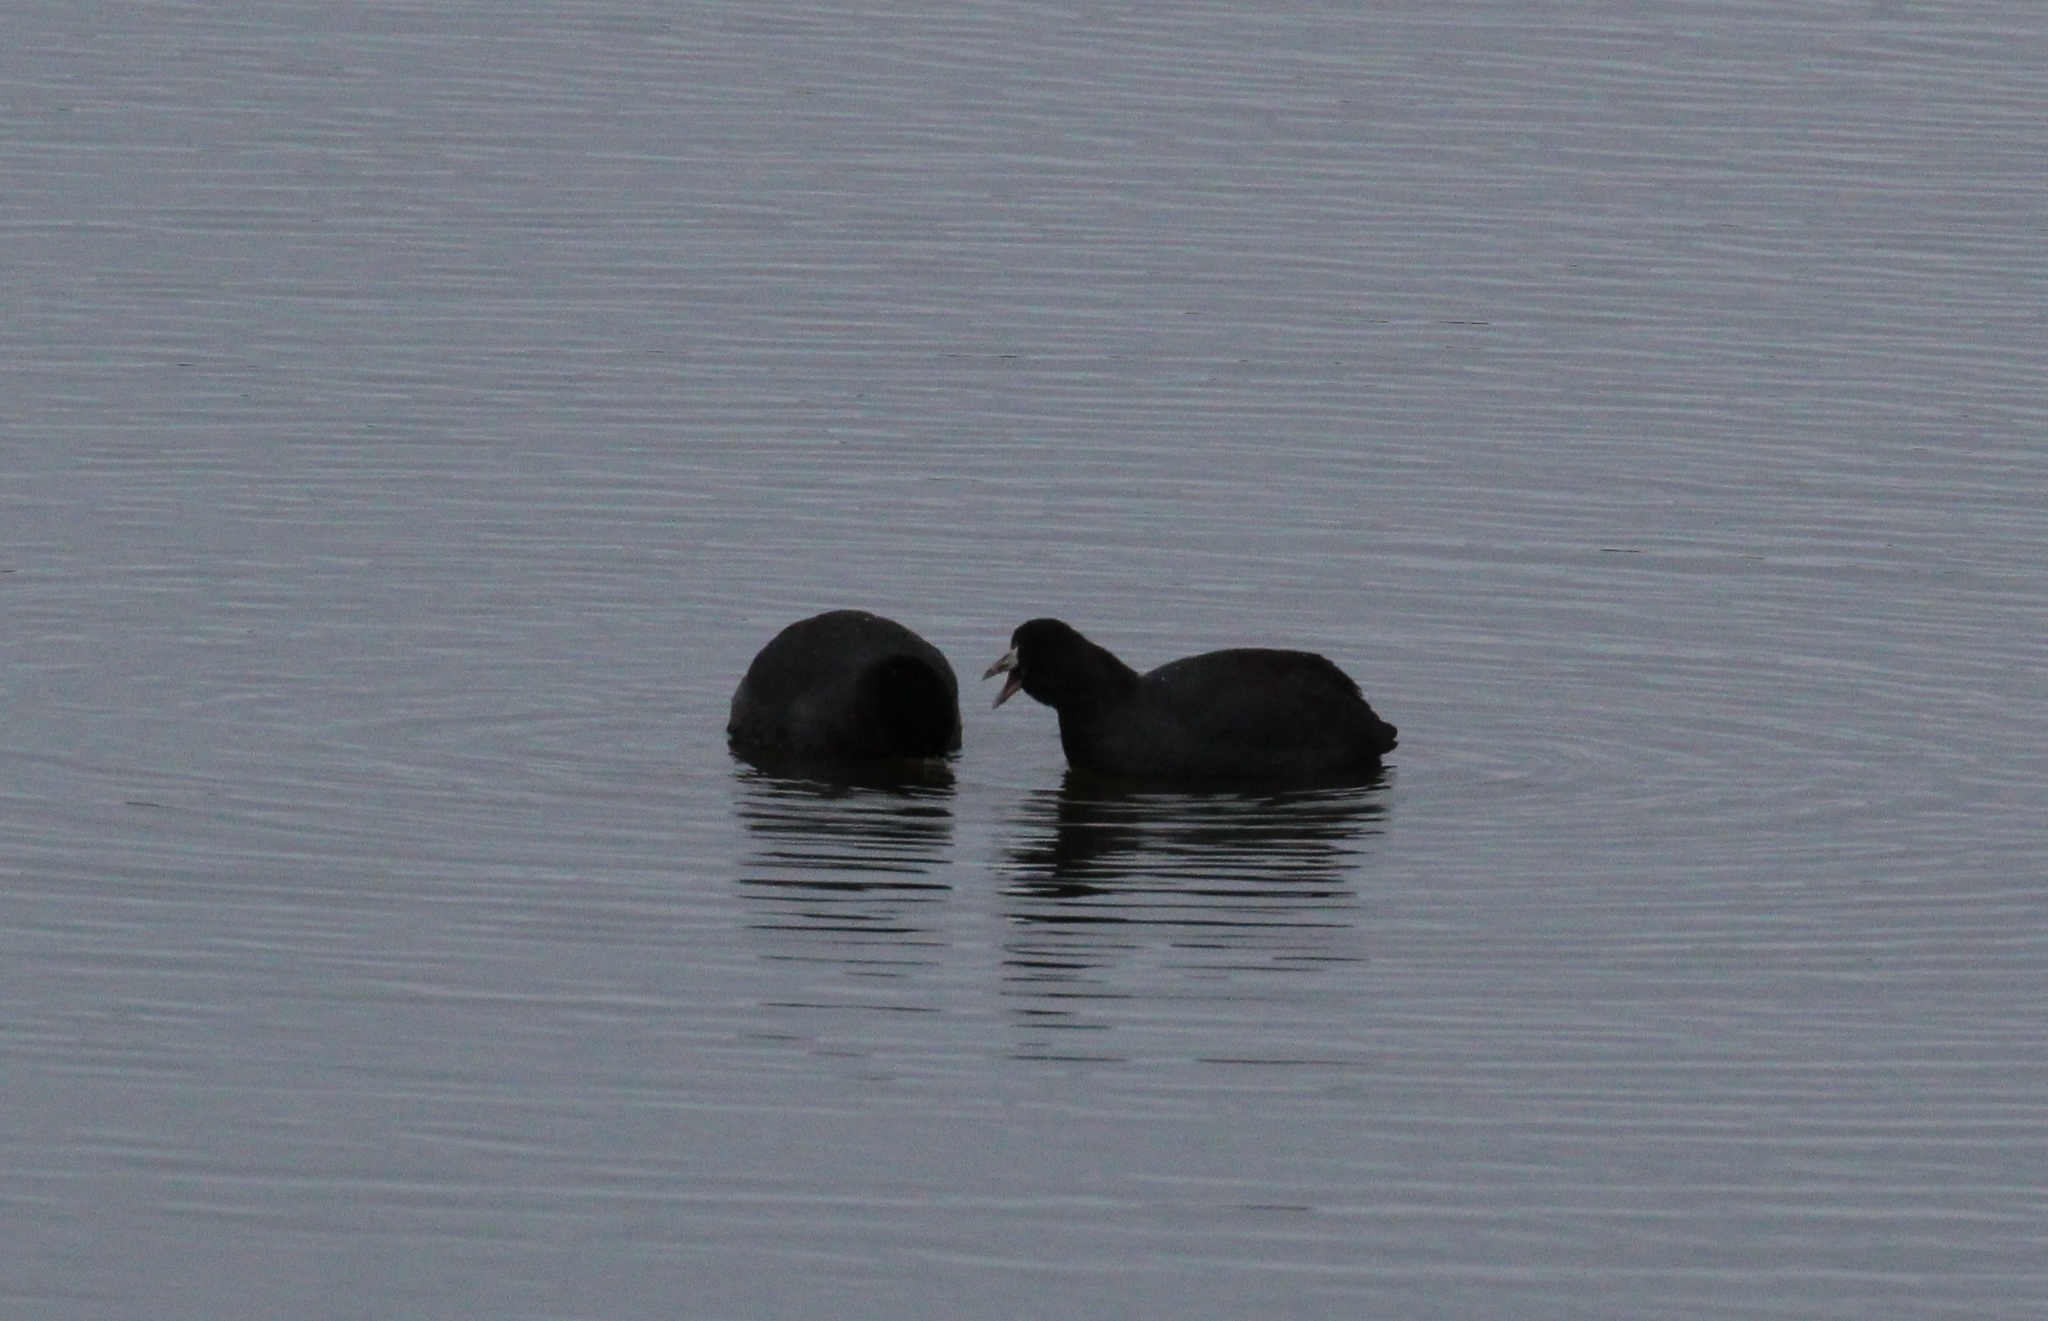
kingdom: Animalia
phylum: Chordata
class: Aves
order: Gruiformes
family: Rallidae
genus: Fulica
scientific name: Fulica americana
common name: American coot
